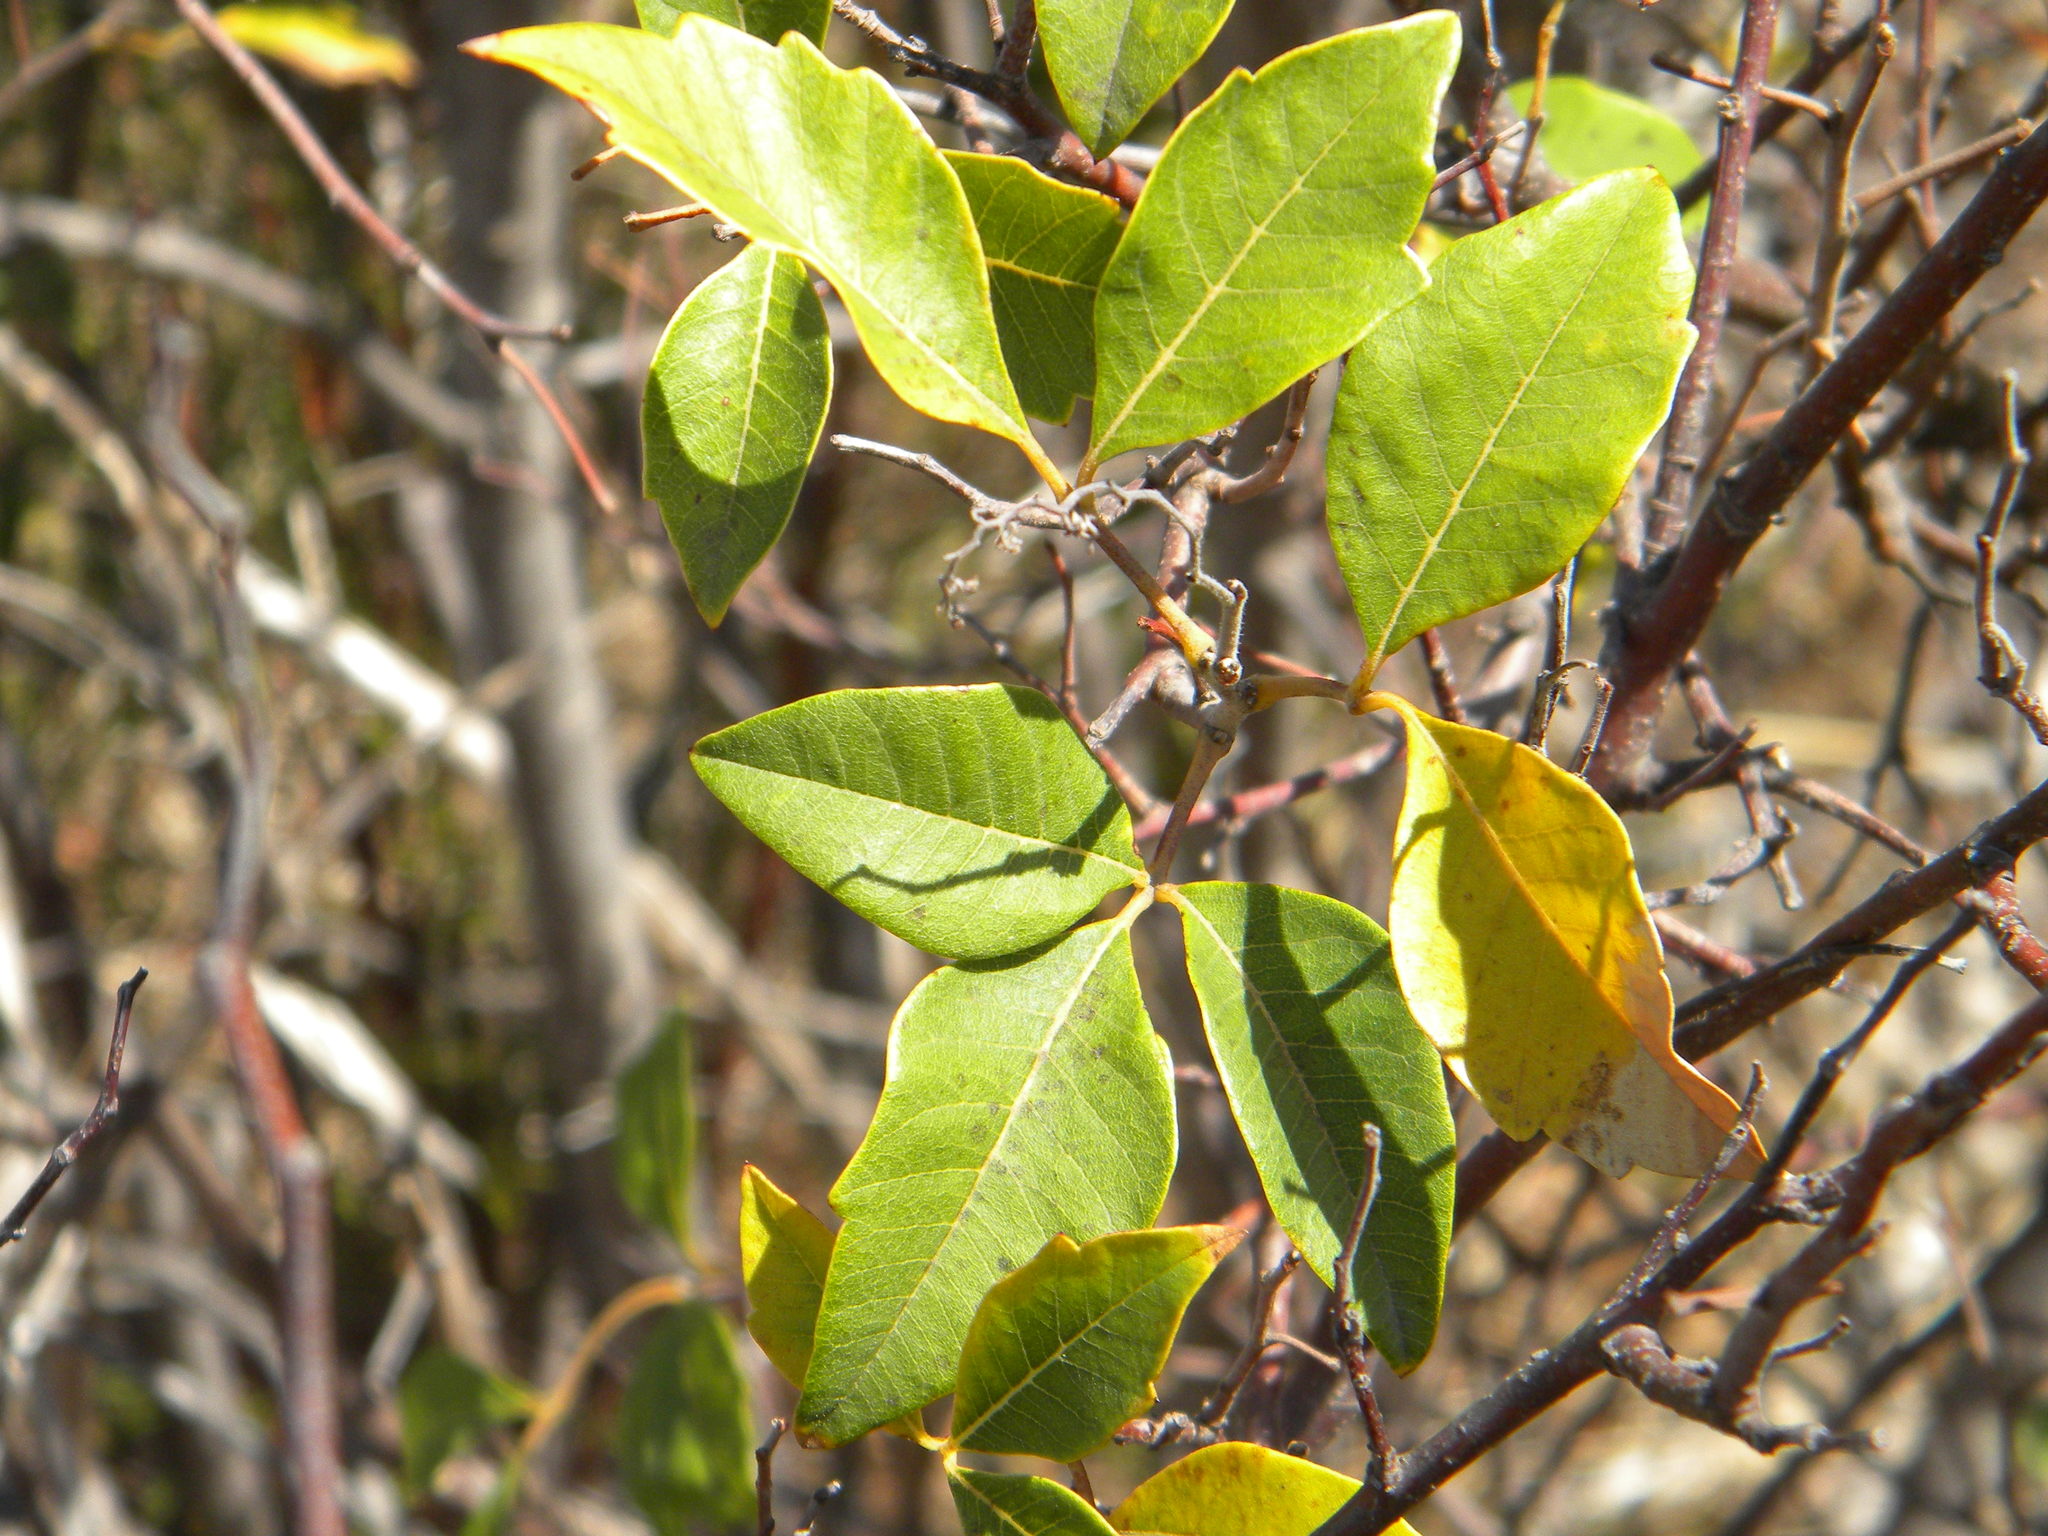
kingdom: Plantae
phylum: Tracheophyta
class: Magnoliopsida
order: Sapindales
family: Anacardiaceae
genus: Searsia
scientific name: Searsia tomentosa
